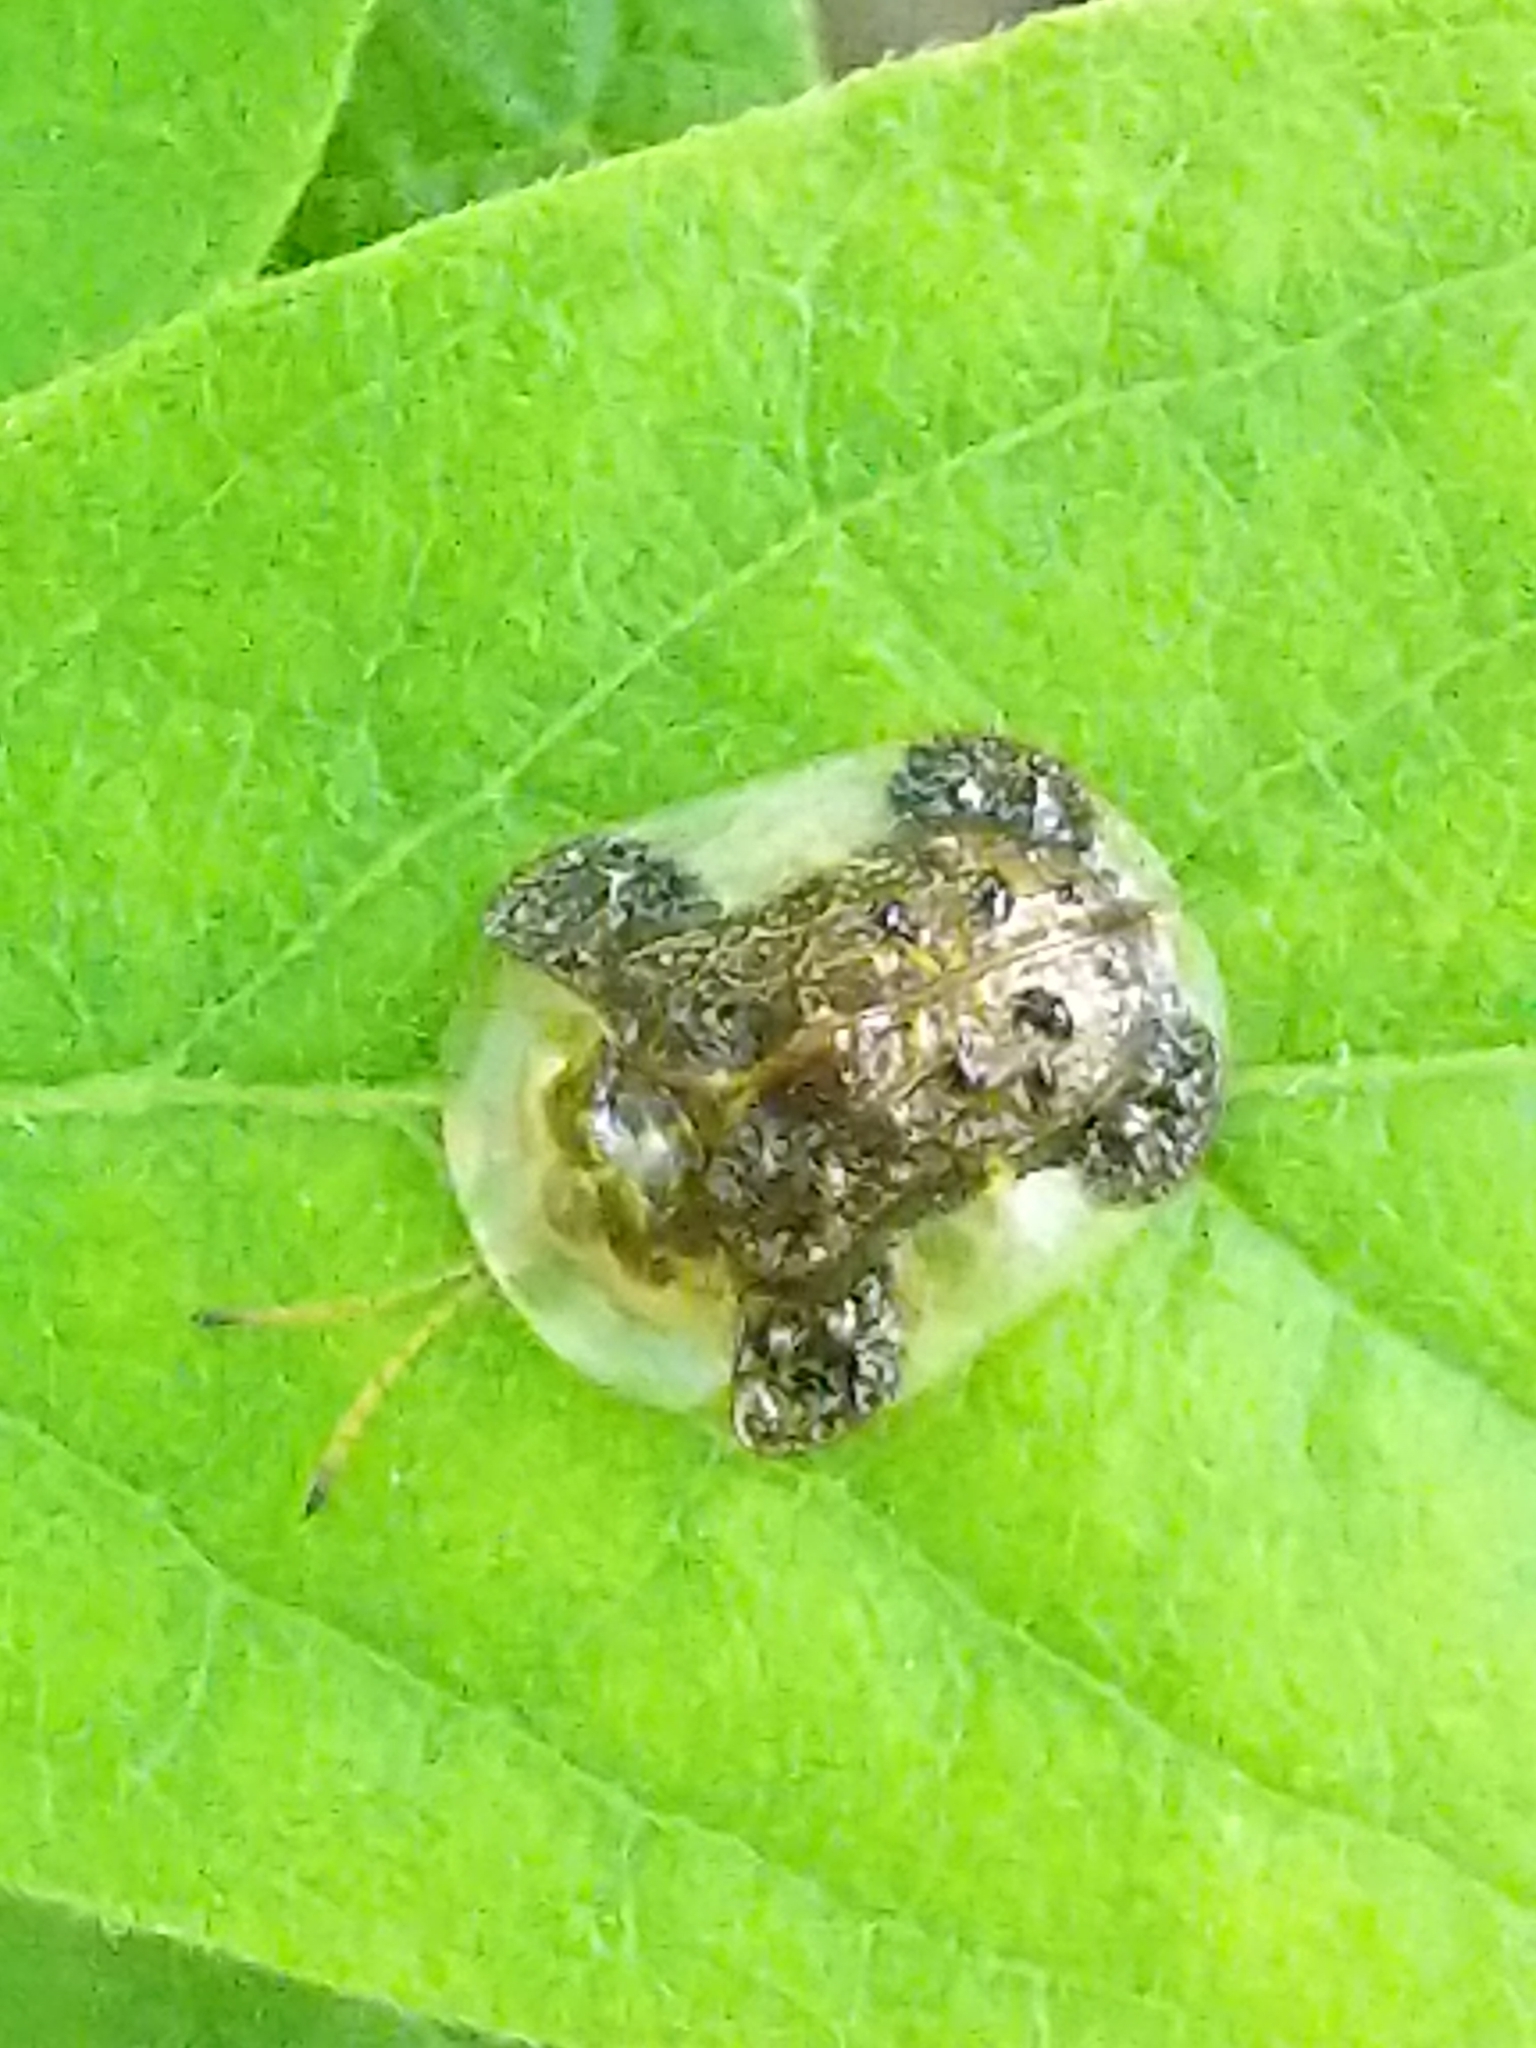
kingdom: Animalia
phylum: Arthropoda
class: Insecta
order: Coleoptera
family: Chrysomelidae
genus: Helocassis
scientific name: Helocassis clavata
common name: Clavate tortoise beetle
